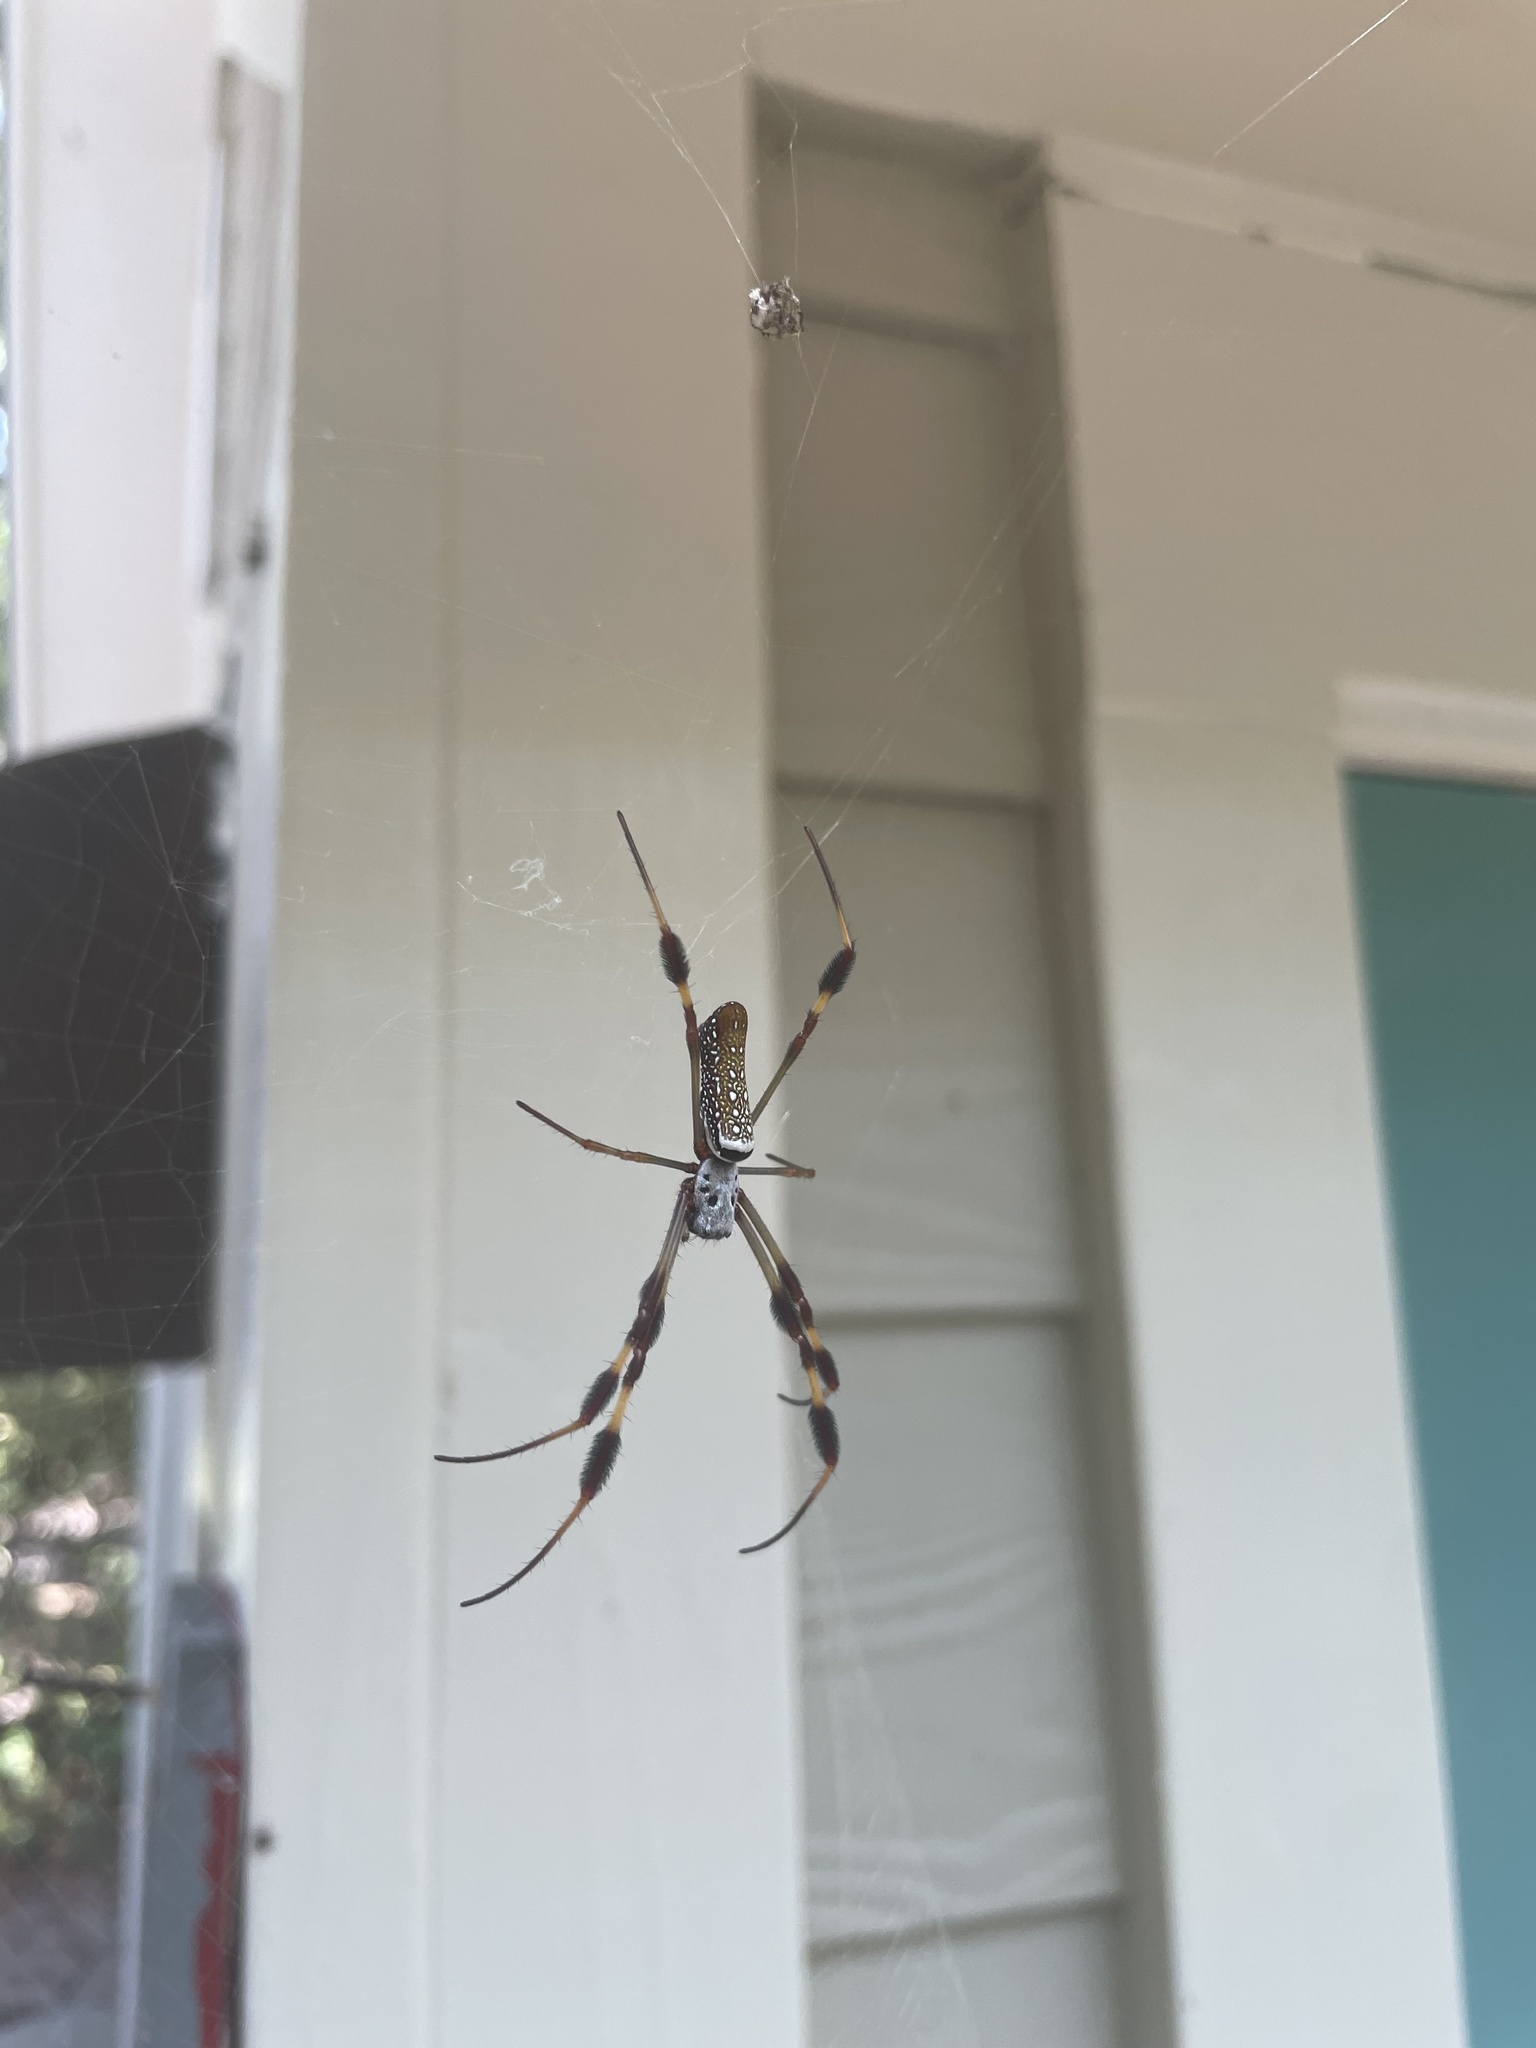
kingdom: Animalia
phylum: Arthropoda
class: Arachnida
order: Araneae
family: Araneidae
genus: Trichonephila
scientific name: Trichonephila clavipes
